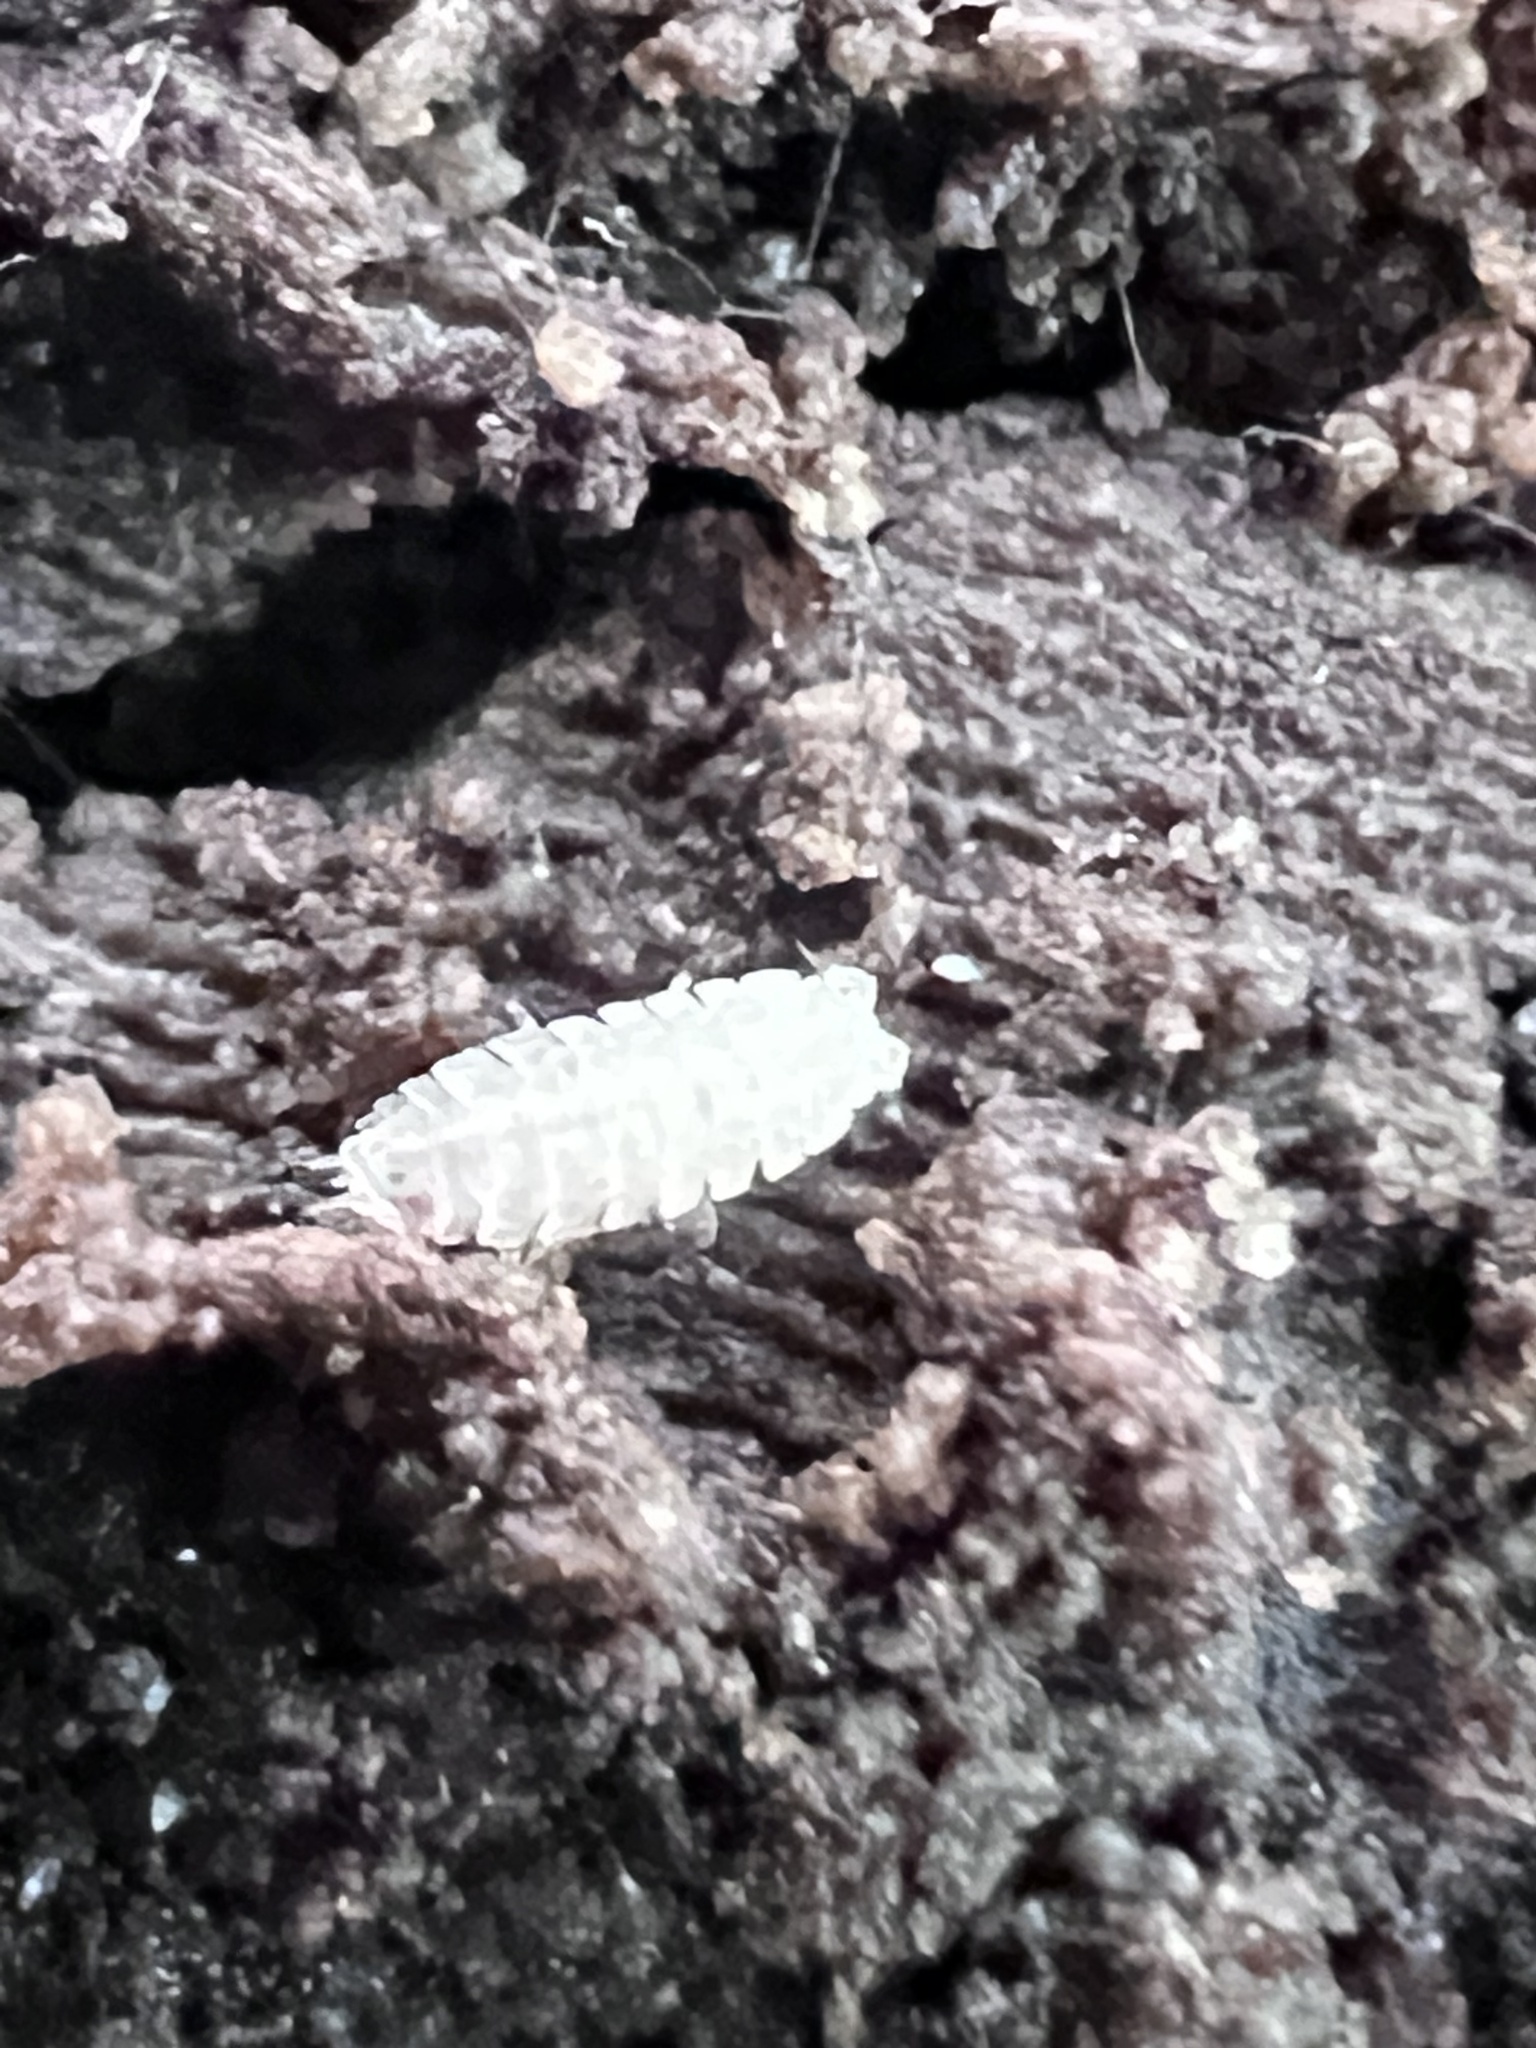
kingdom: Animalia
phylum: Arthropoda
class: Malacostraca
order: Isopoda
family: Trichoniscidae
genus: Haplophthalmus
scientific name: Haplophthalmus danicus
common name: Pillbug
